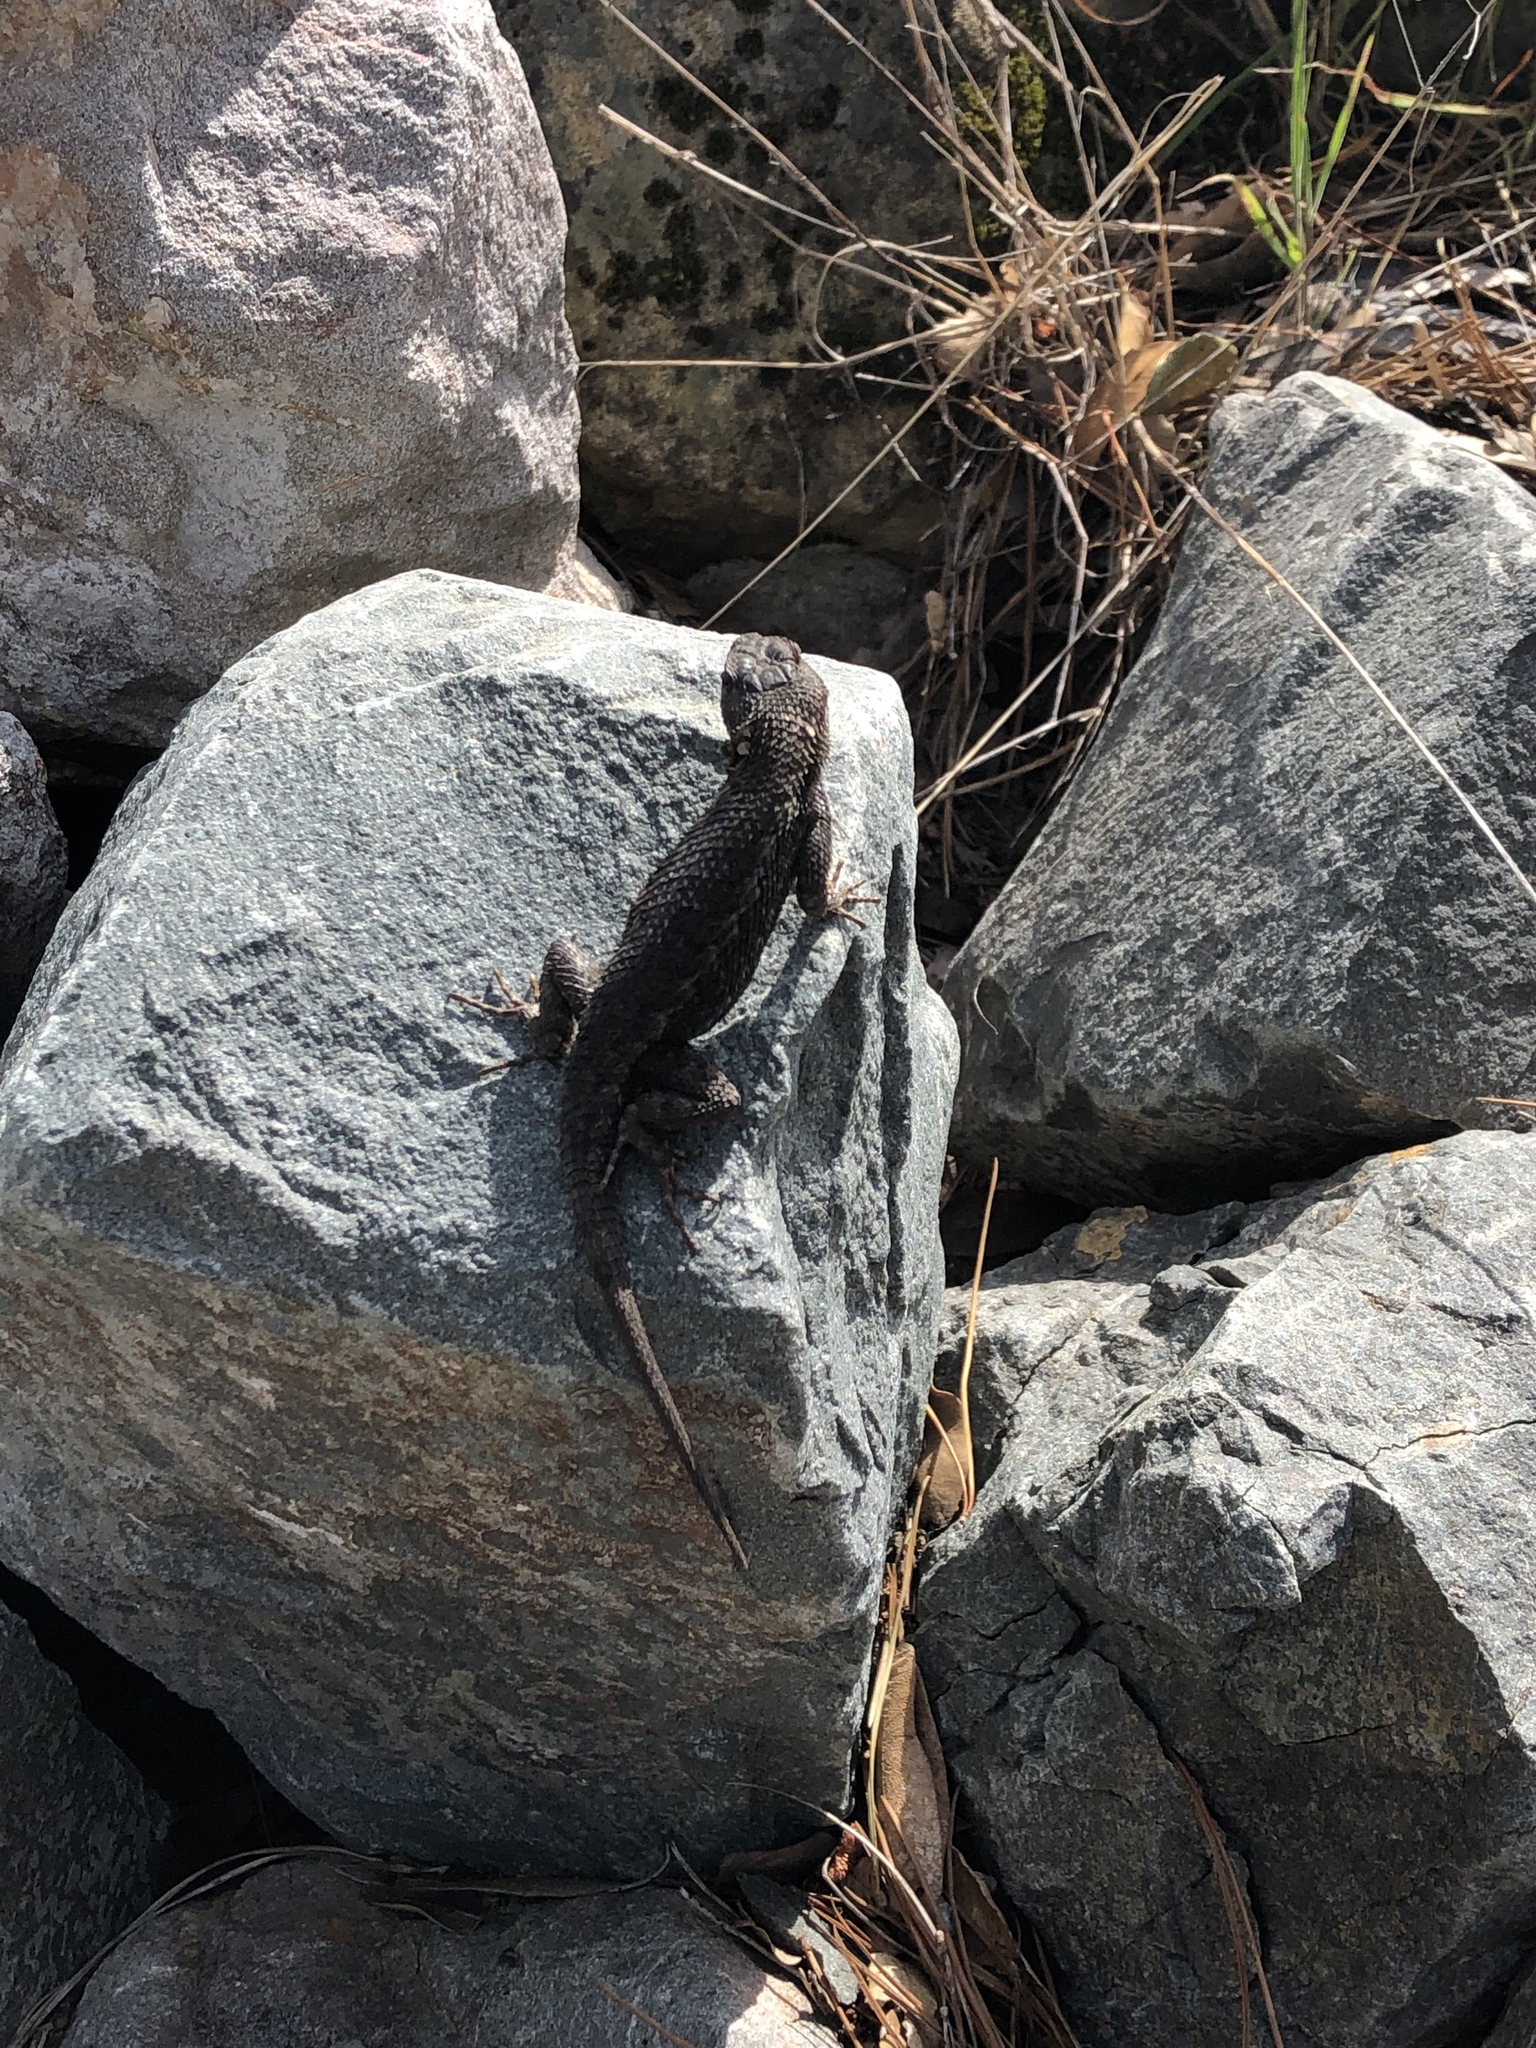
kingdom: Animalia
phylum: Chordata
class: Squamata
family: Phrynosomatidae
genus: Sceloporus
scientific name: Sceloporus occidentalis
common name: Western fence lizard
